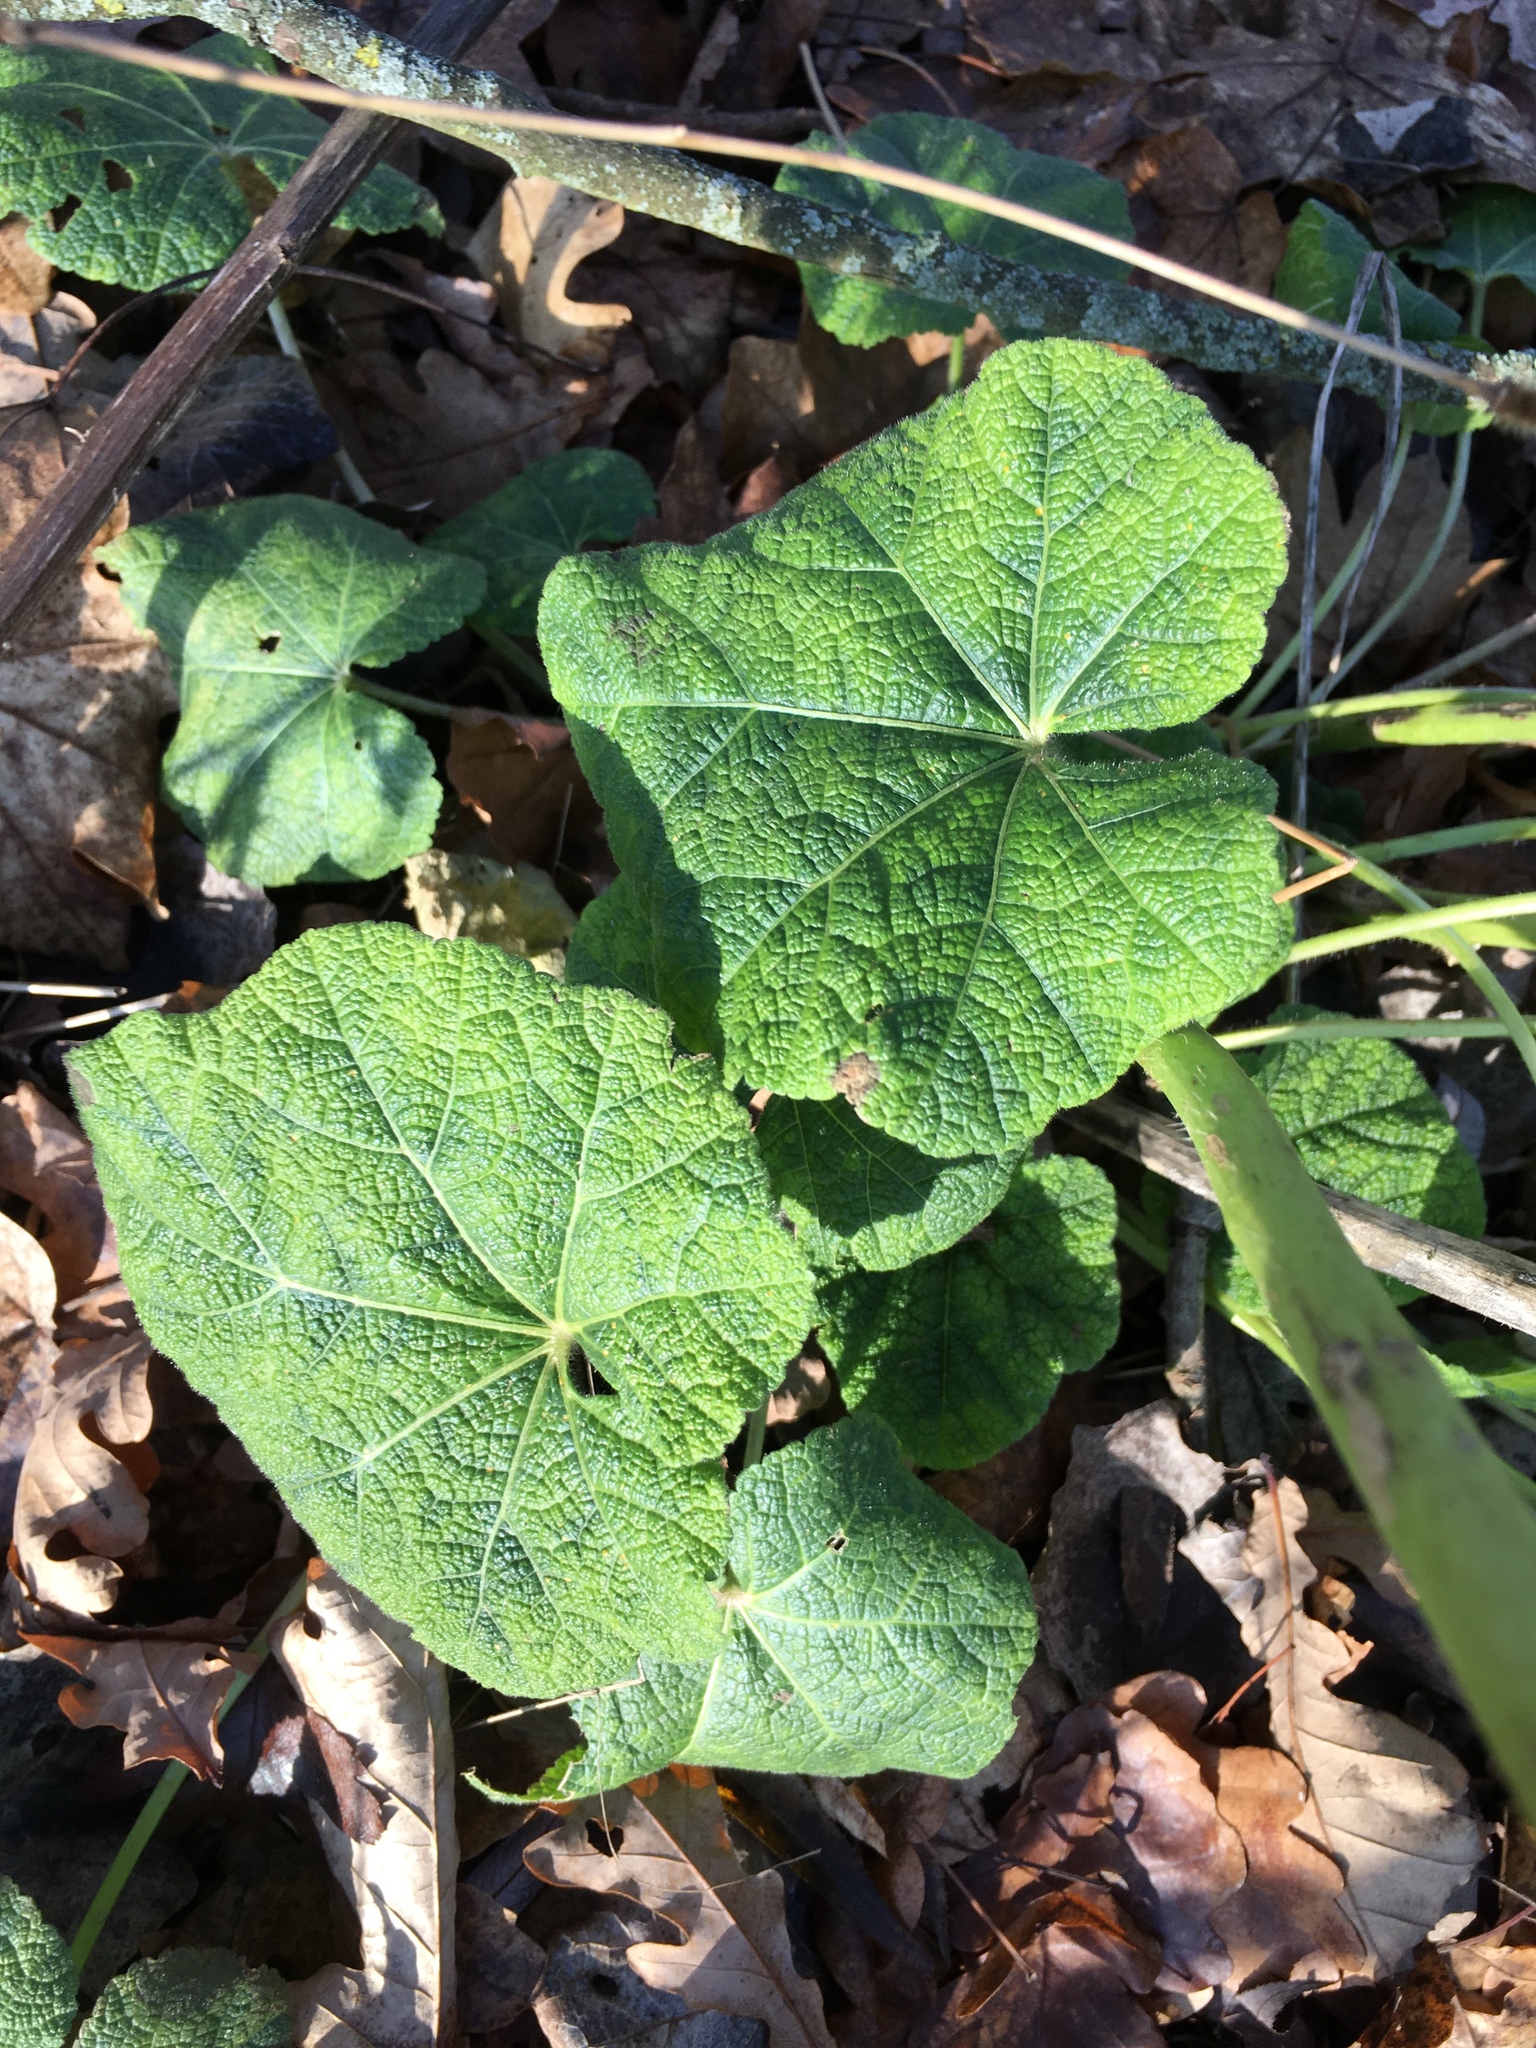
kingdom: Plantae
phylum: Tracheophyta
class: Magnoliopsida
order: Malvales
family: Malvaceae
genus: Alcea
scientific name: Alcea rosea
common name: Hollyhock
